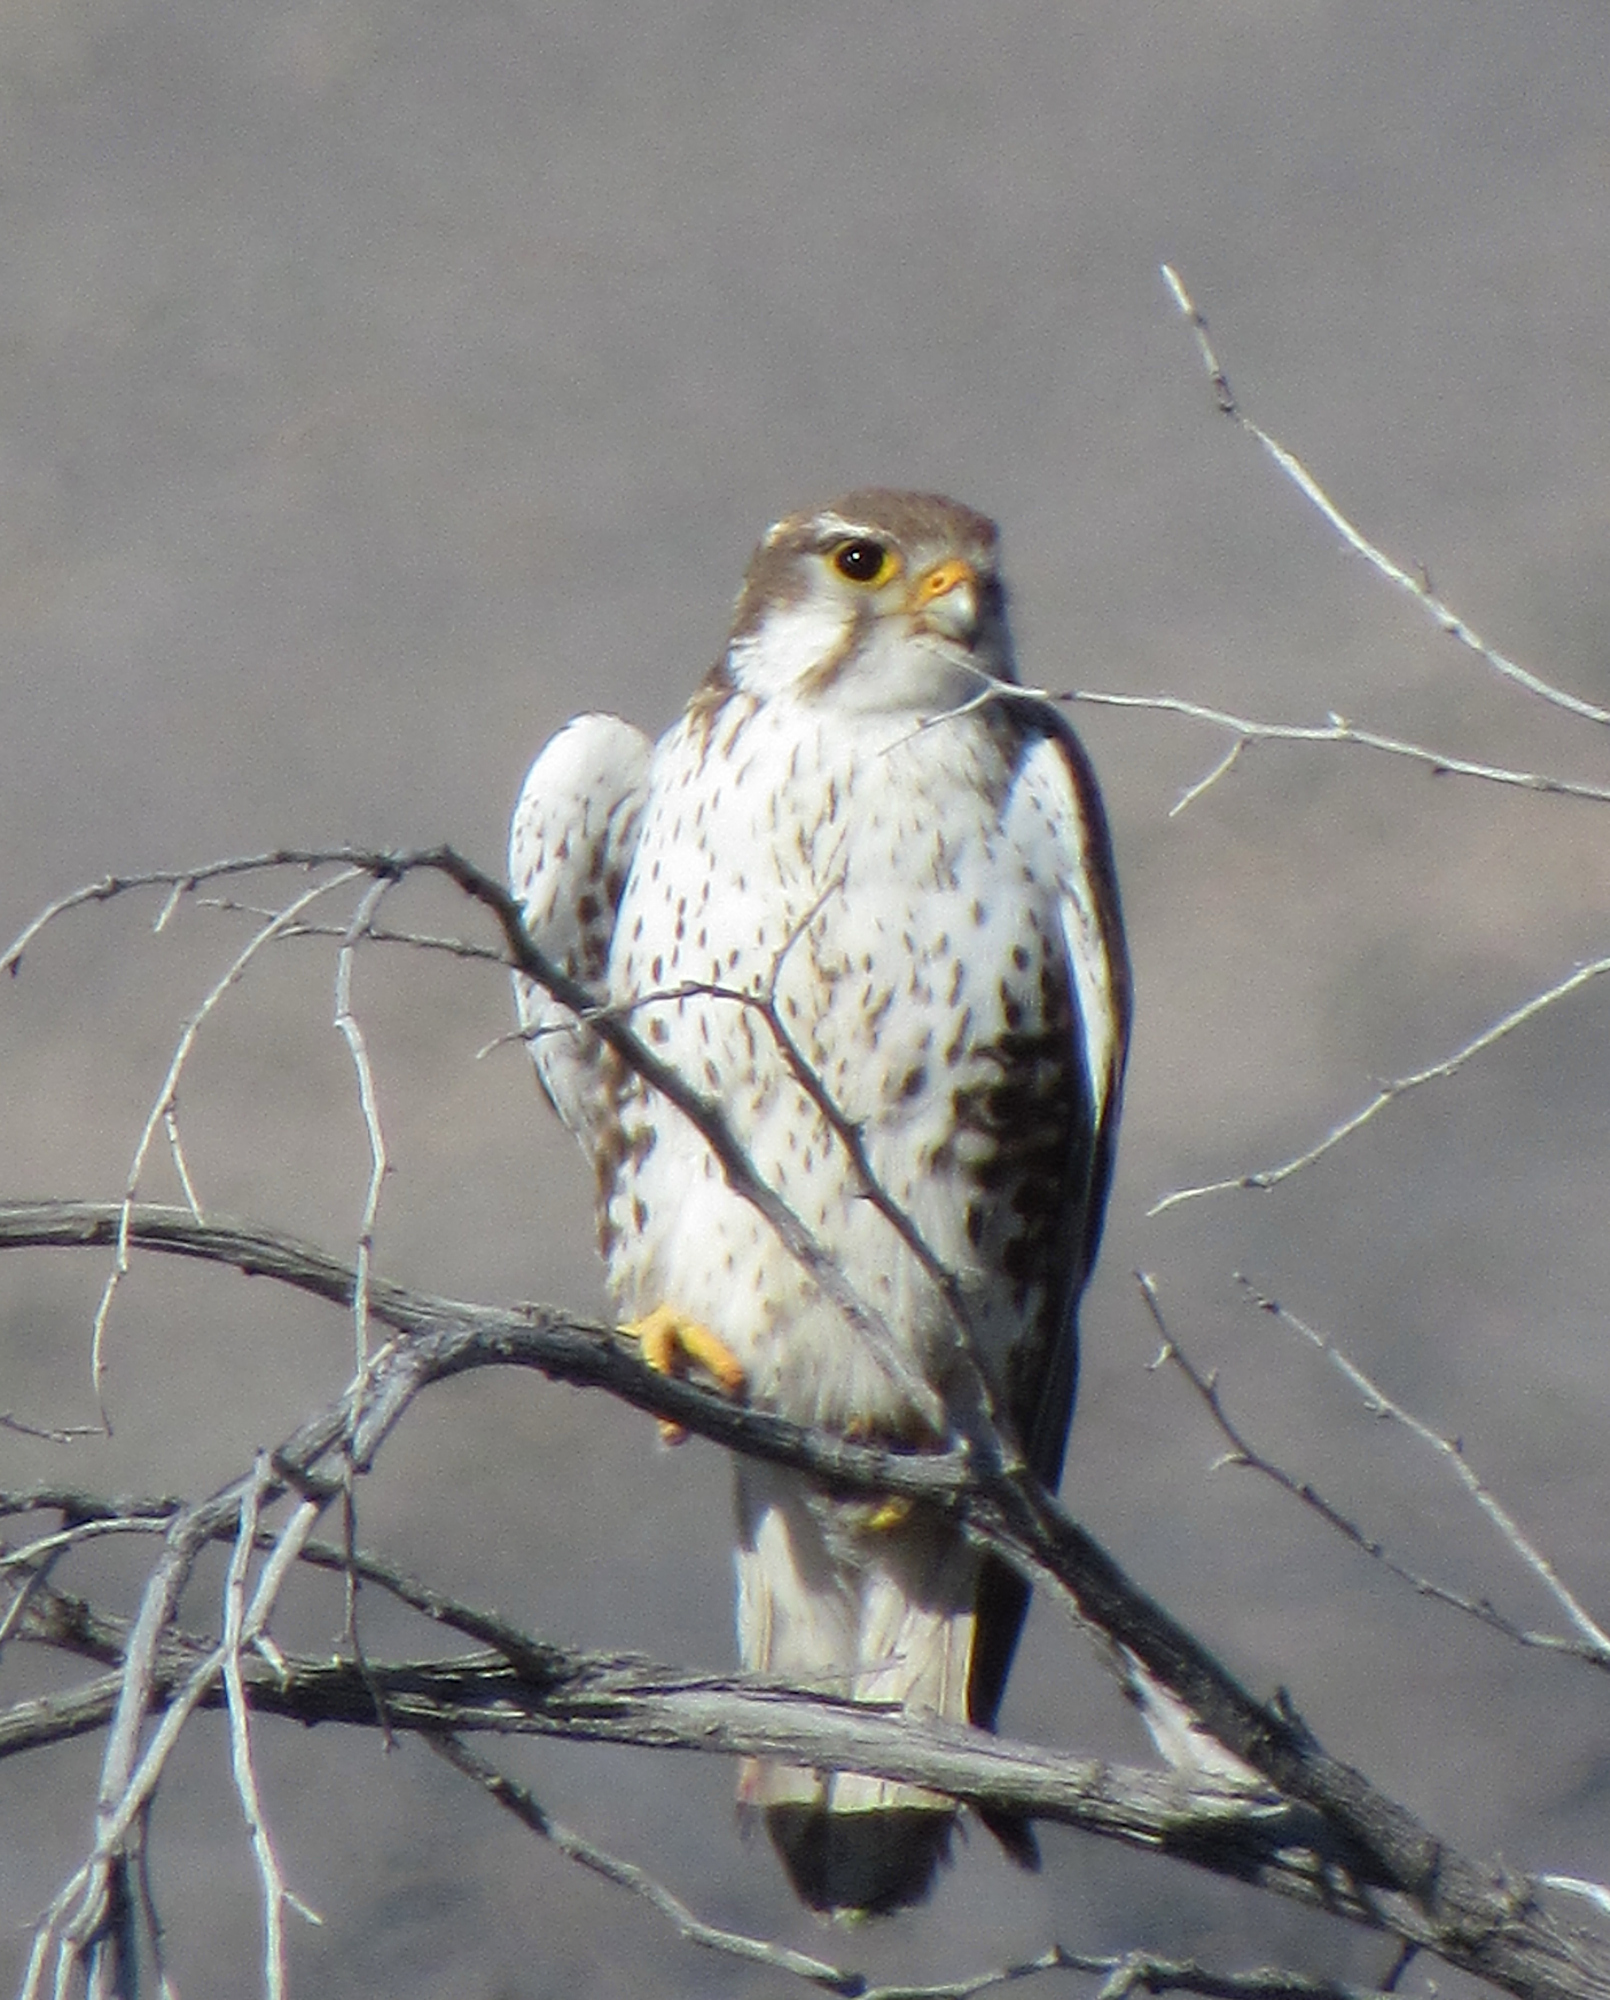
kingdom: Animalia
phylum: Chordata
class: Aves
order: Falconiformes
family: Falconidae
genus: Falco
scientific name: Falco mexicanus
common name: Prairie falcon
